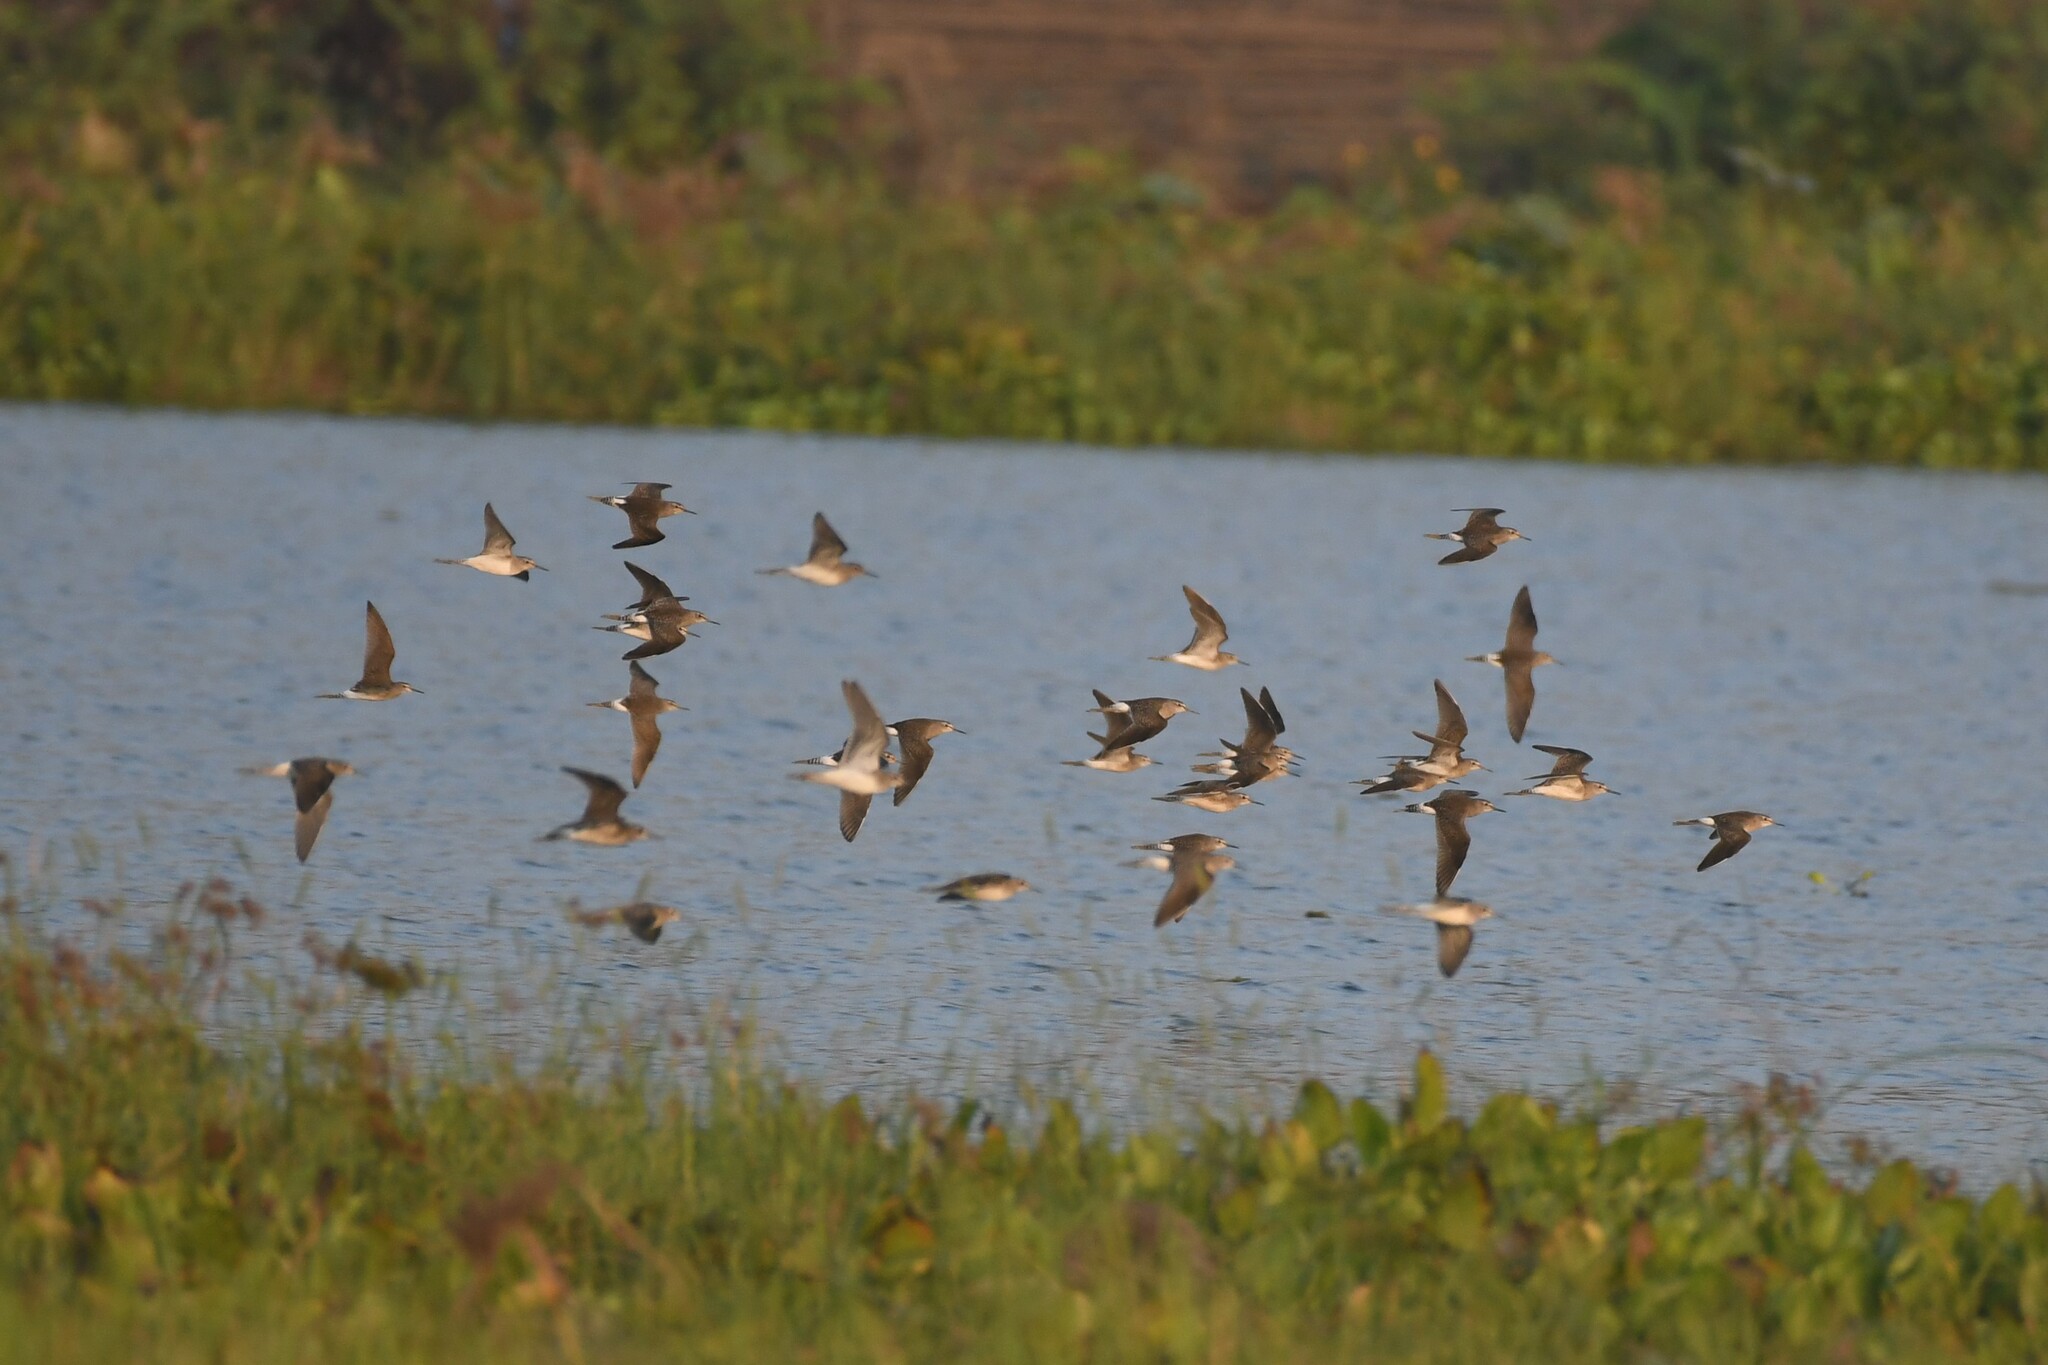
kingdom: Animalia
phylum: Chordata
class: Aves
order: Charadriiformes
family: Scolopacidae
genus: Tringa
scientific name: Tringa glareola
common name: Wood sandpiper
